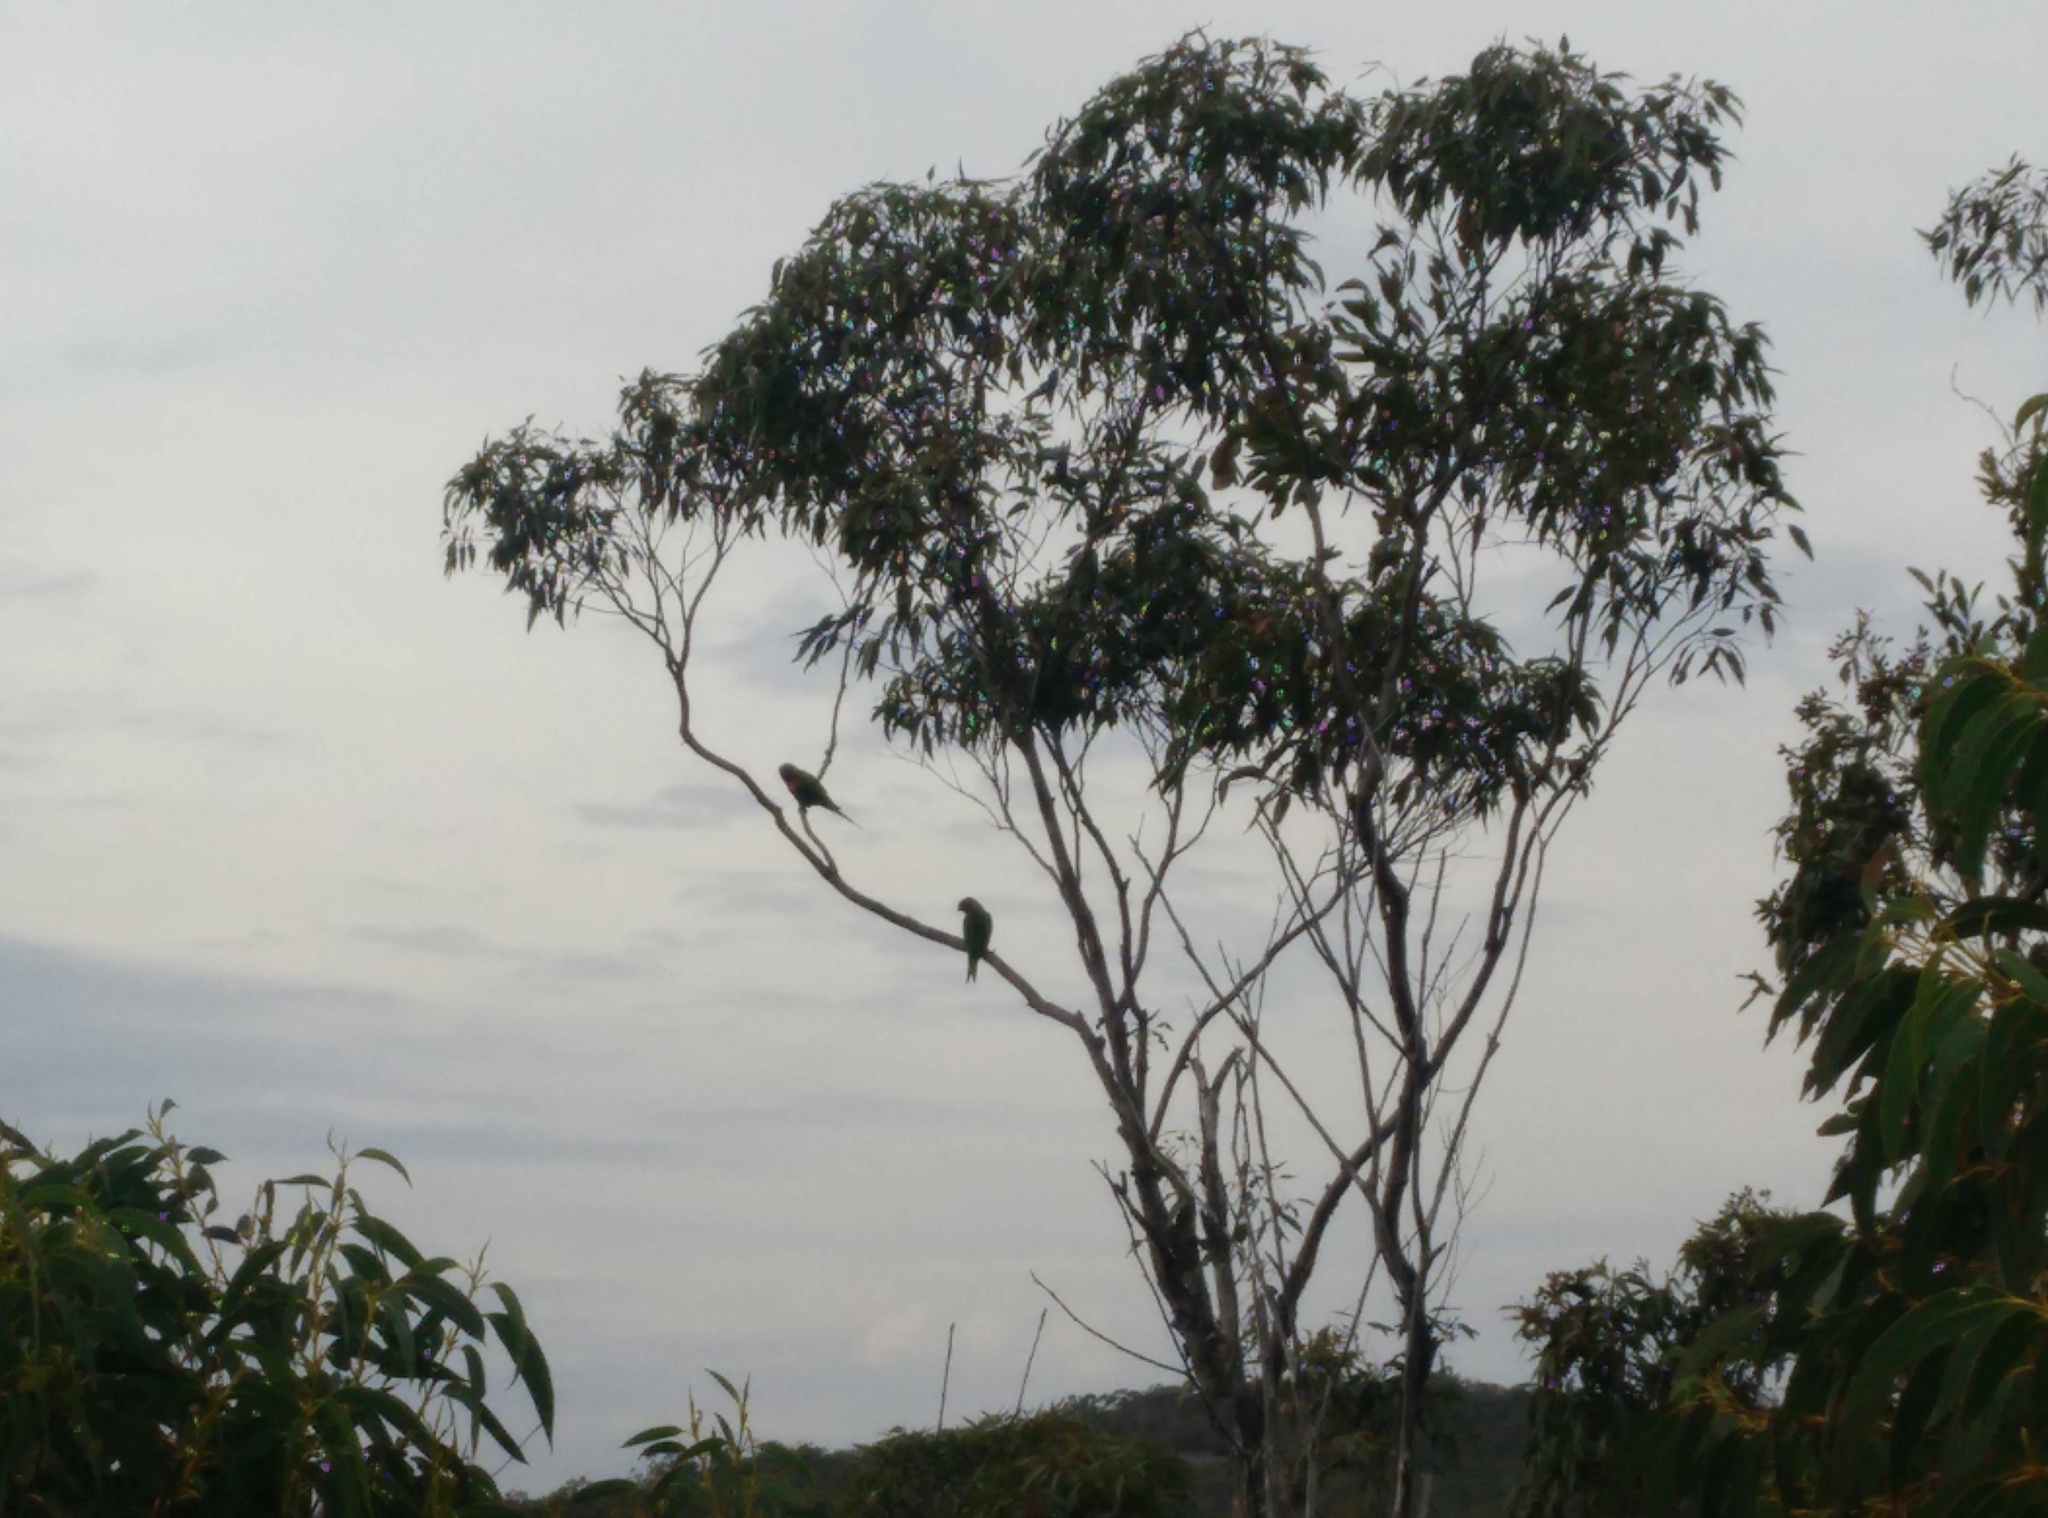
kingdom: Animalia
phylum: Chordata
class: Aves
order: Psittaciformes
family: Psittacidae
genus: Trichoglossus
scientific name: Trichoglossus haematodus
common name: Coconut lorikeet
